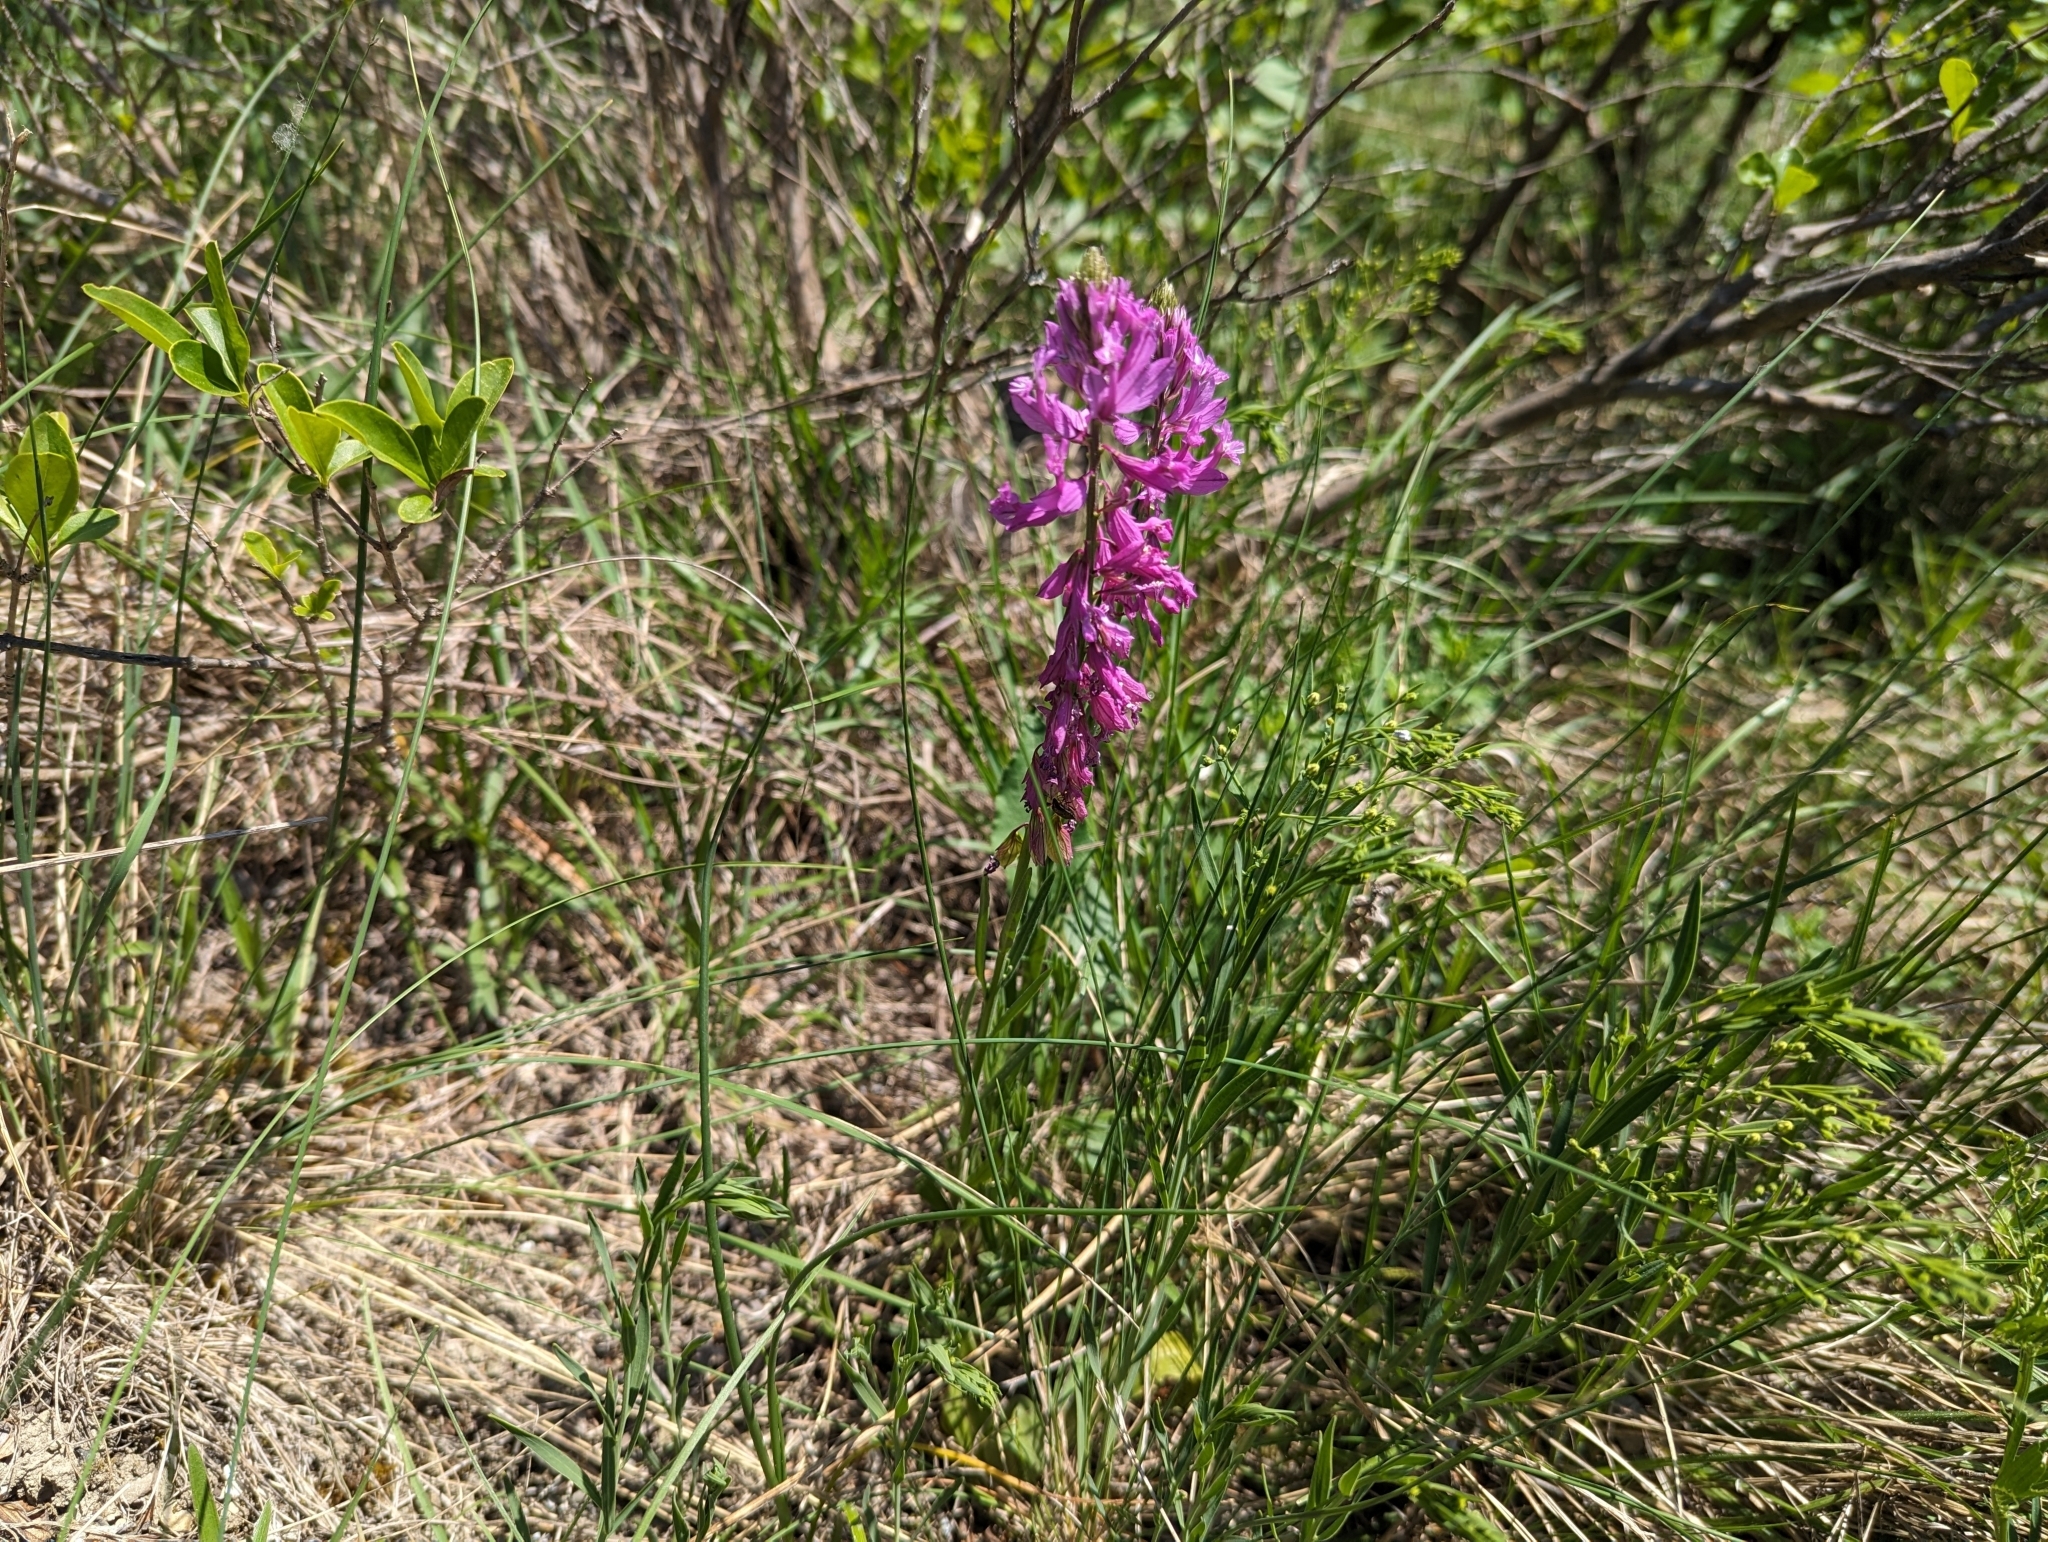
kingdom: Plantae
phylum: Tracheophyta
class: Magnoliopsida
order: Fabales
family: Polygalaceae
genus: Polygala
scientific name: Polygala major
